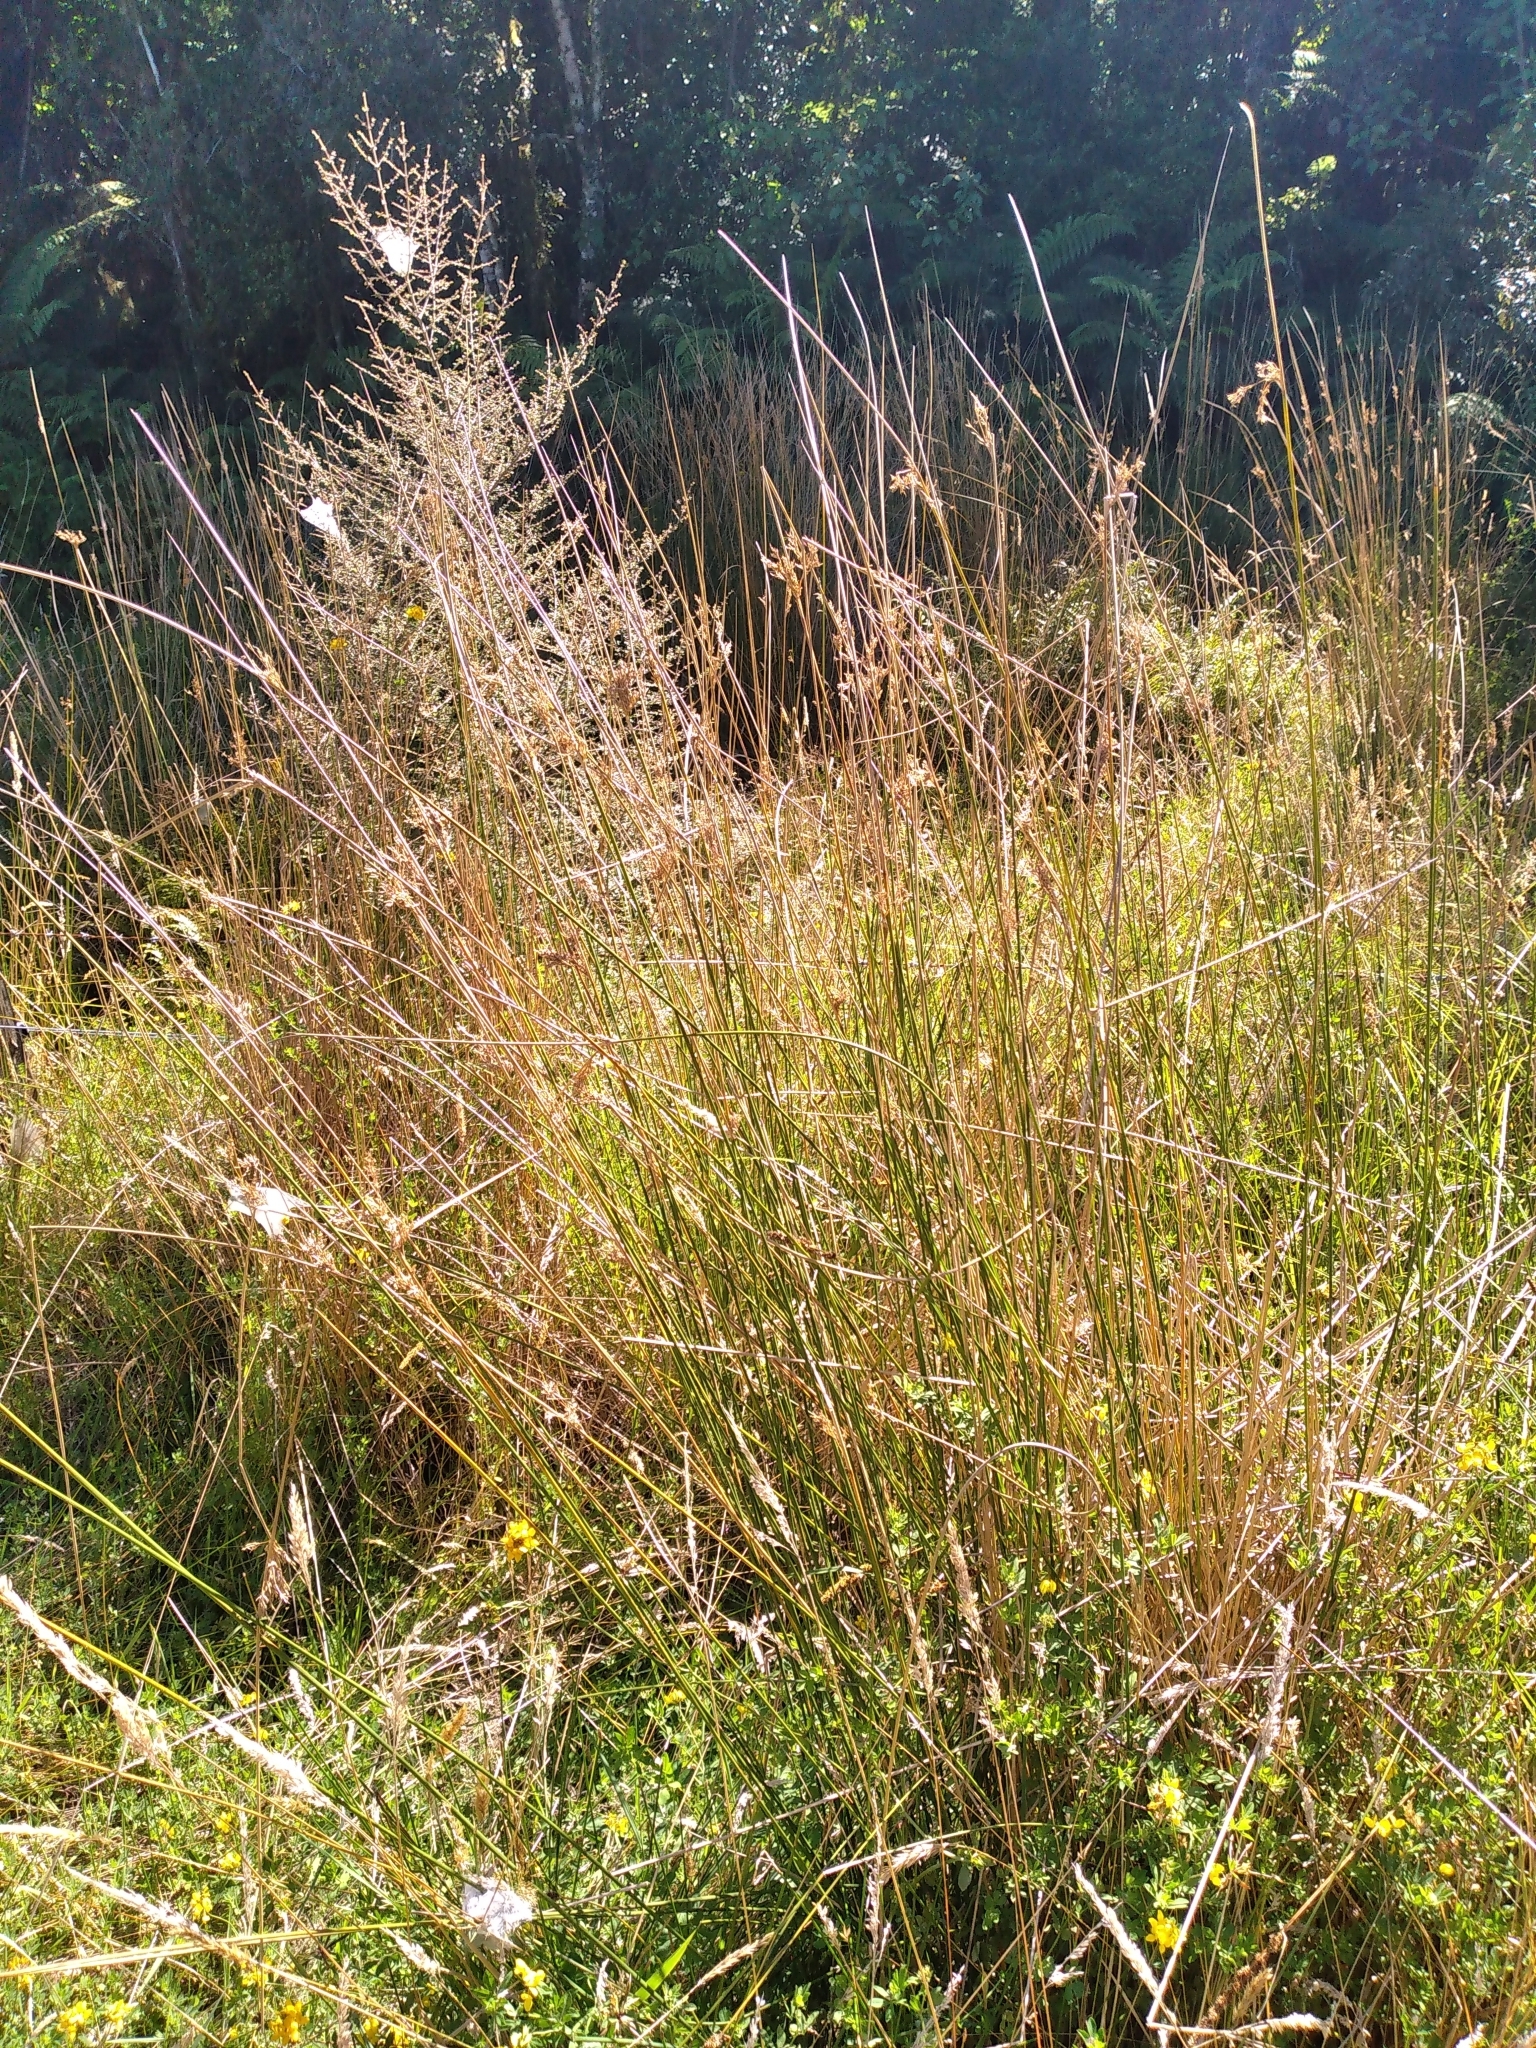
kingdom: Plantae
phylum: Tracheophyta
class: Liliopsida
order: Poales
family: Juncaceae
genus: Juncus
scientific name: Juncus sarophorus
